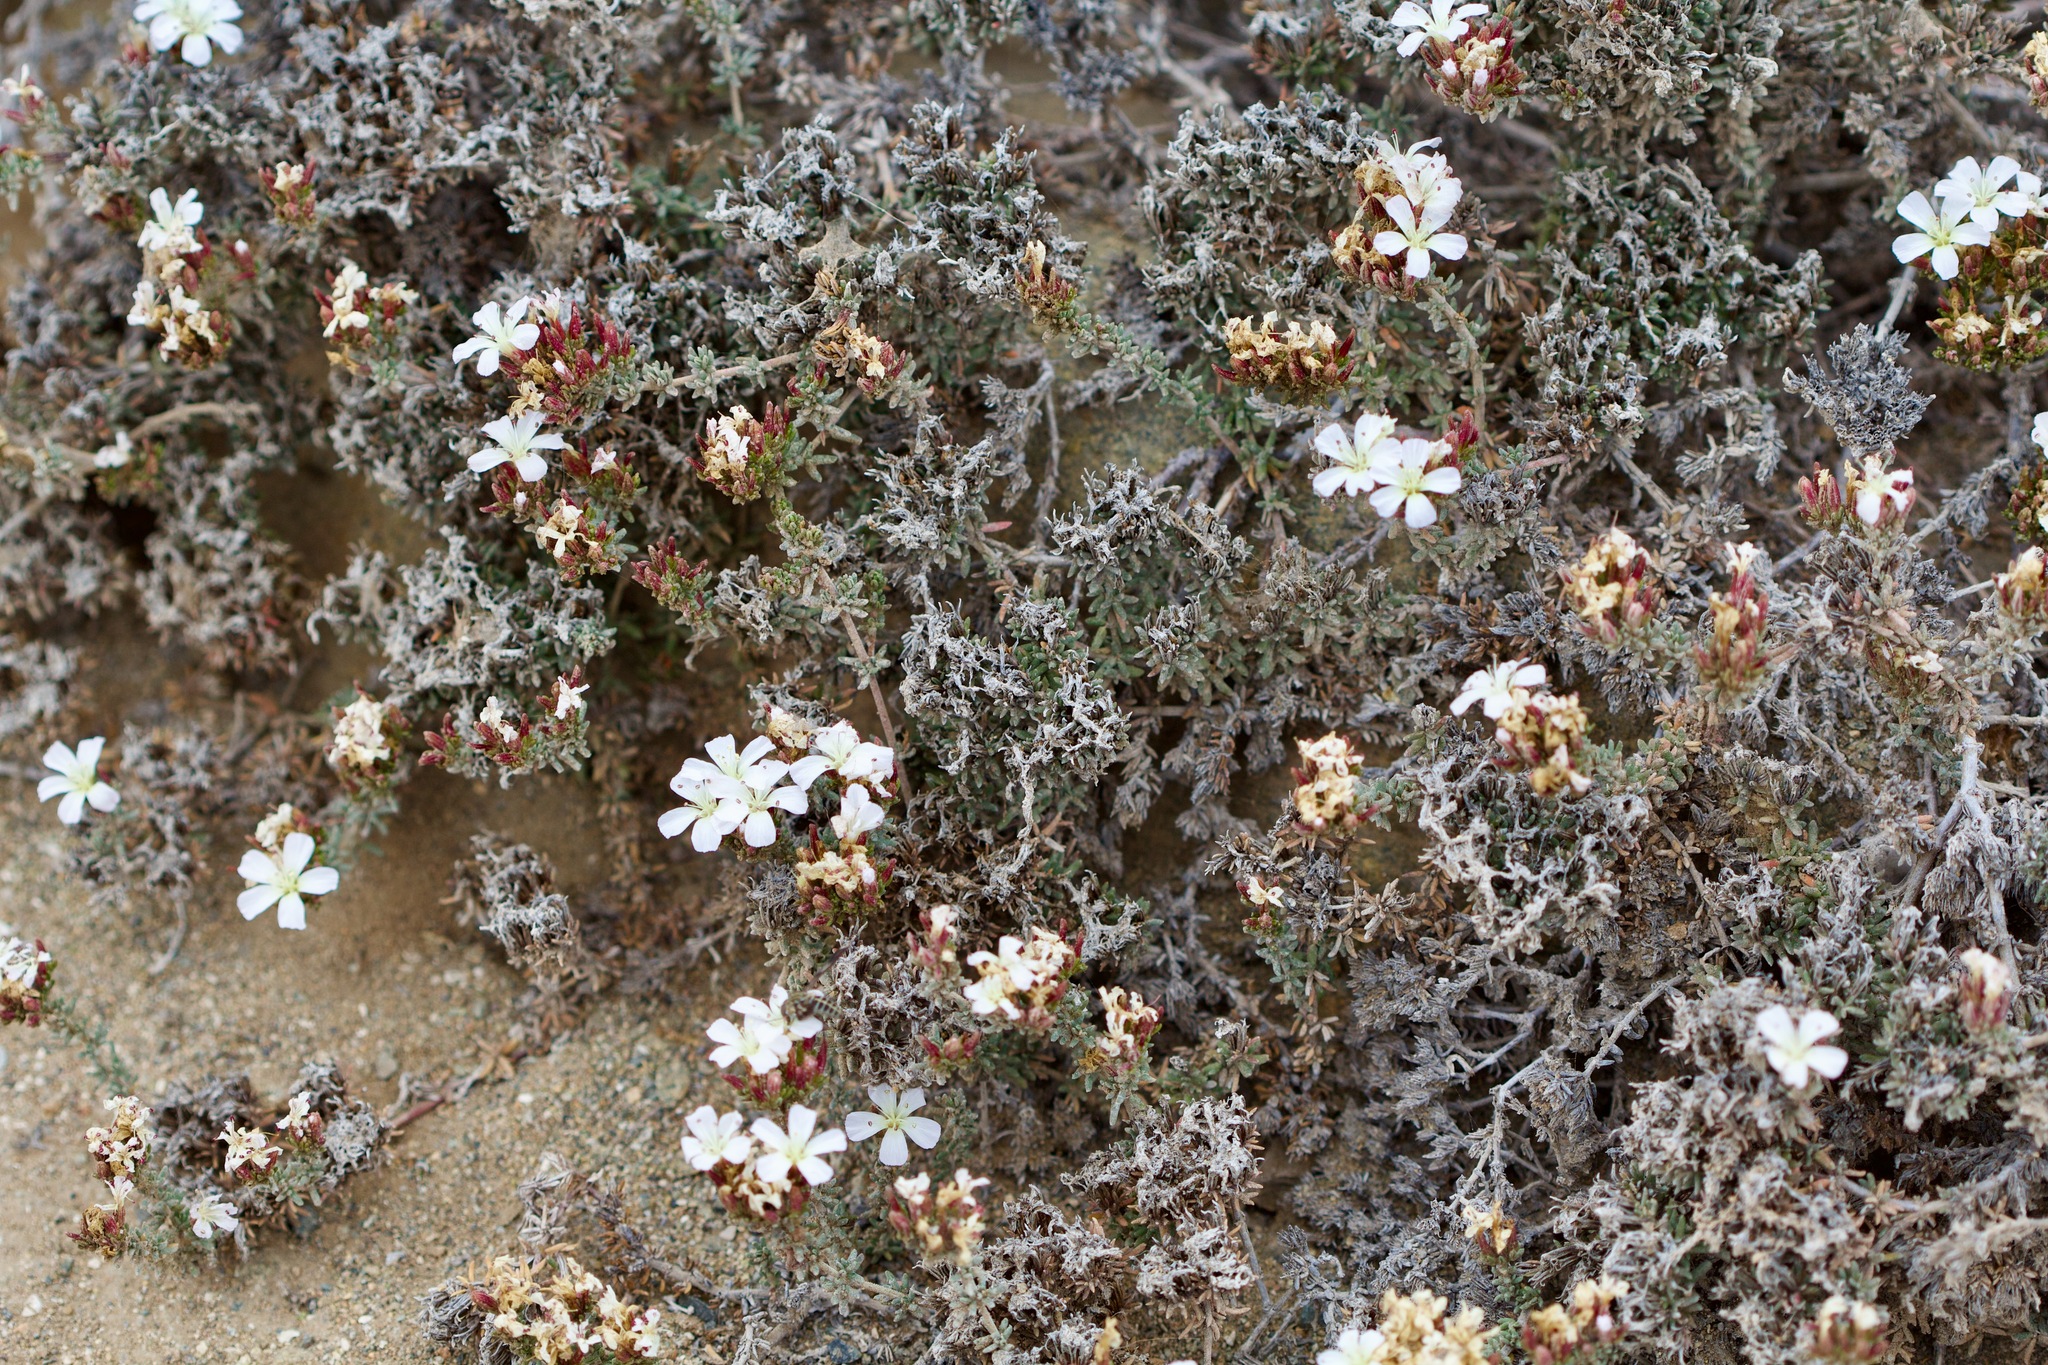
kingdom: Plantae
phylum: Tracheophyta
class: Magnoliopsida
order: Caryophyllales
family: Frankeniaceae
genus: Frankenia
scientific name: Frankenia chilensis
